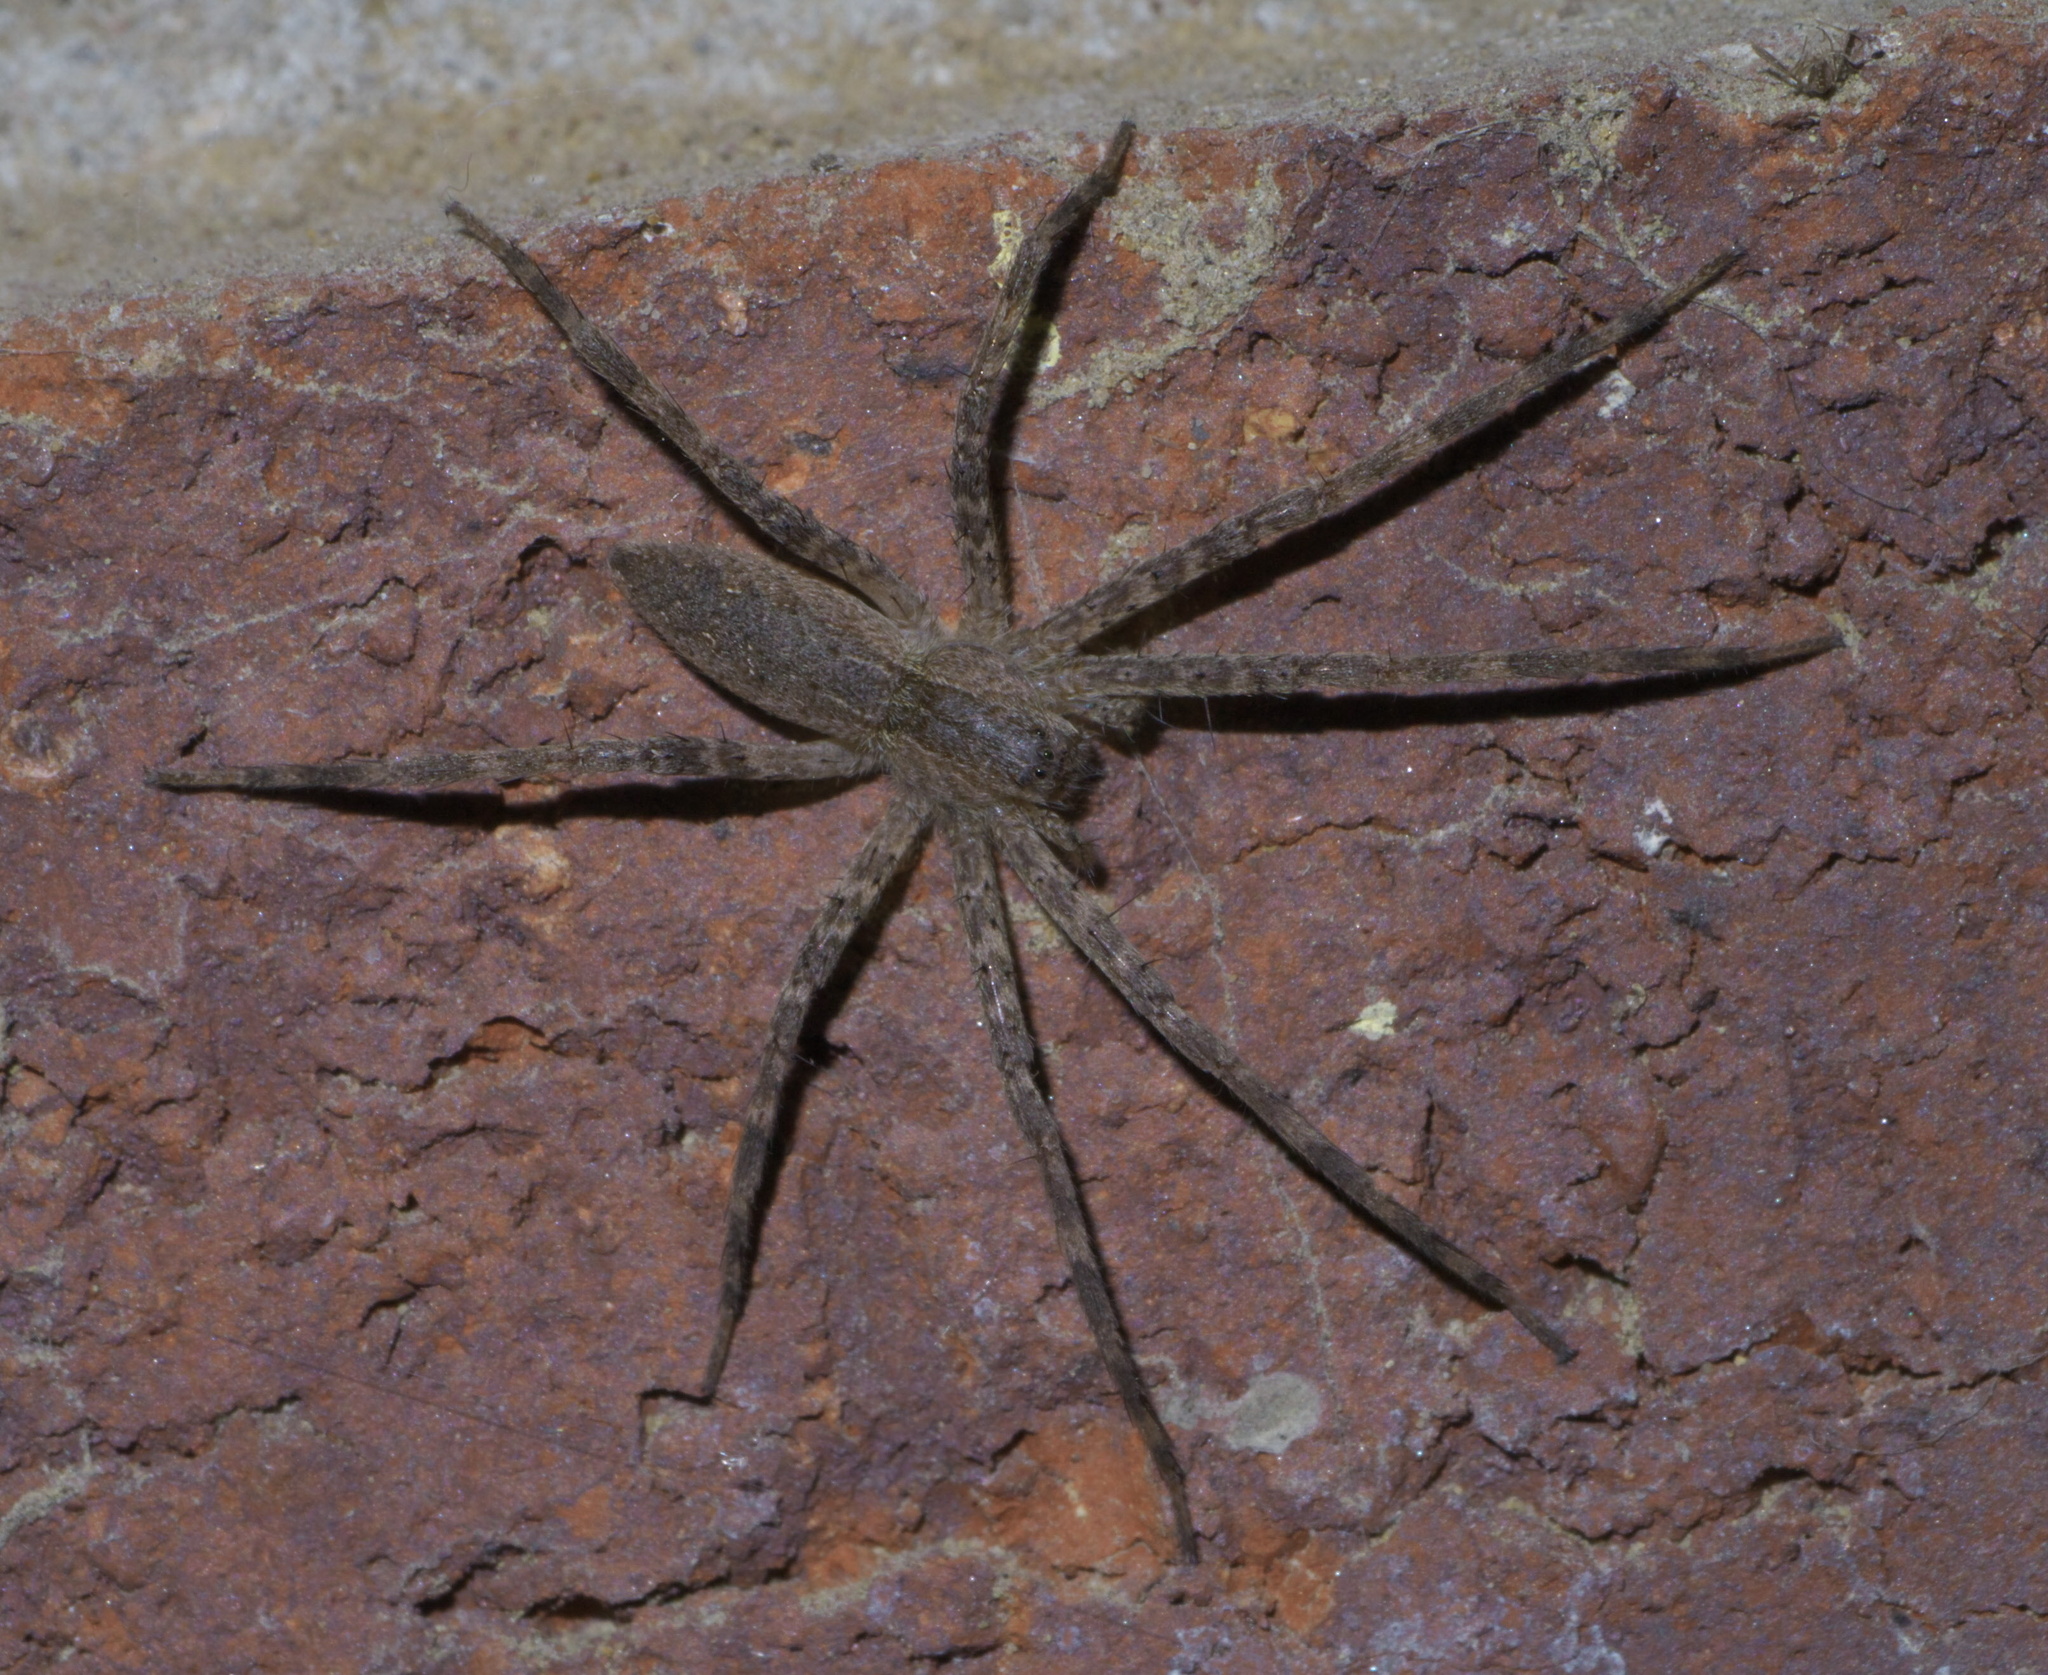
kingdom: Animalia
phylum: Arthropoda
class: Arachnida
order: Araneae
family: Pisauridae
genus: Pisaurina
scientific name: Pisaurina mira
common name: American nursery web spider
